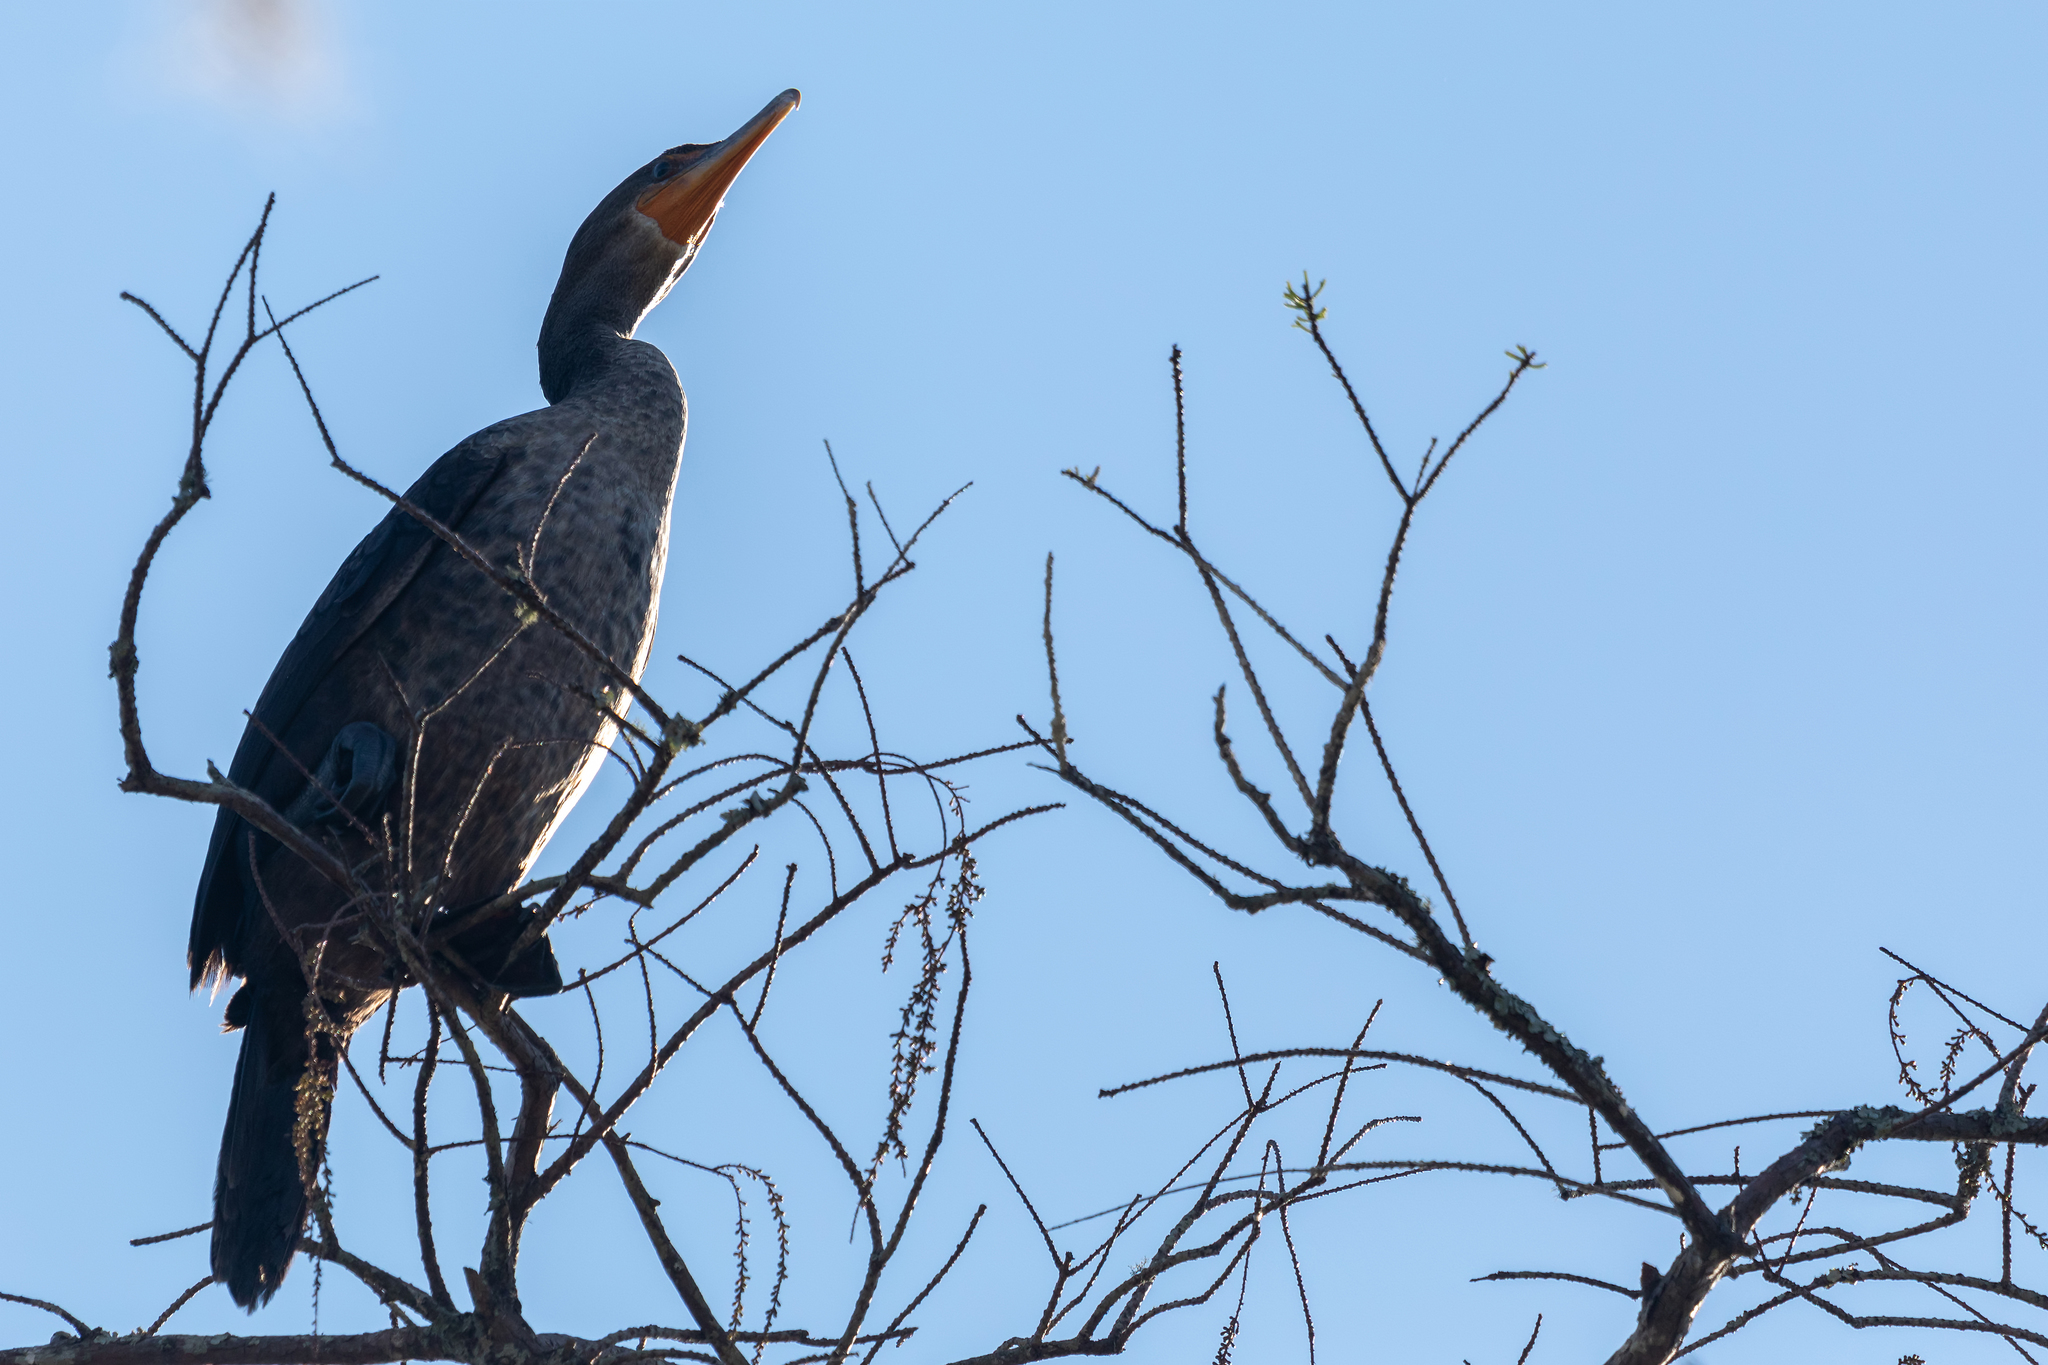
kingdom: Animalia
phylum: Chordata
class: Aves
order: Suliformes
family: Phalacrocoracidae
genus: Phalacrocorax
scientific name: Phalacrocorax auritus
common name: Double-crested cormorant
